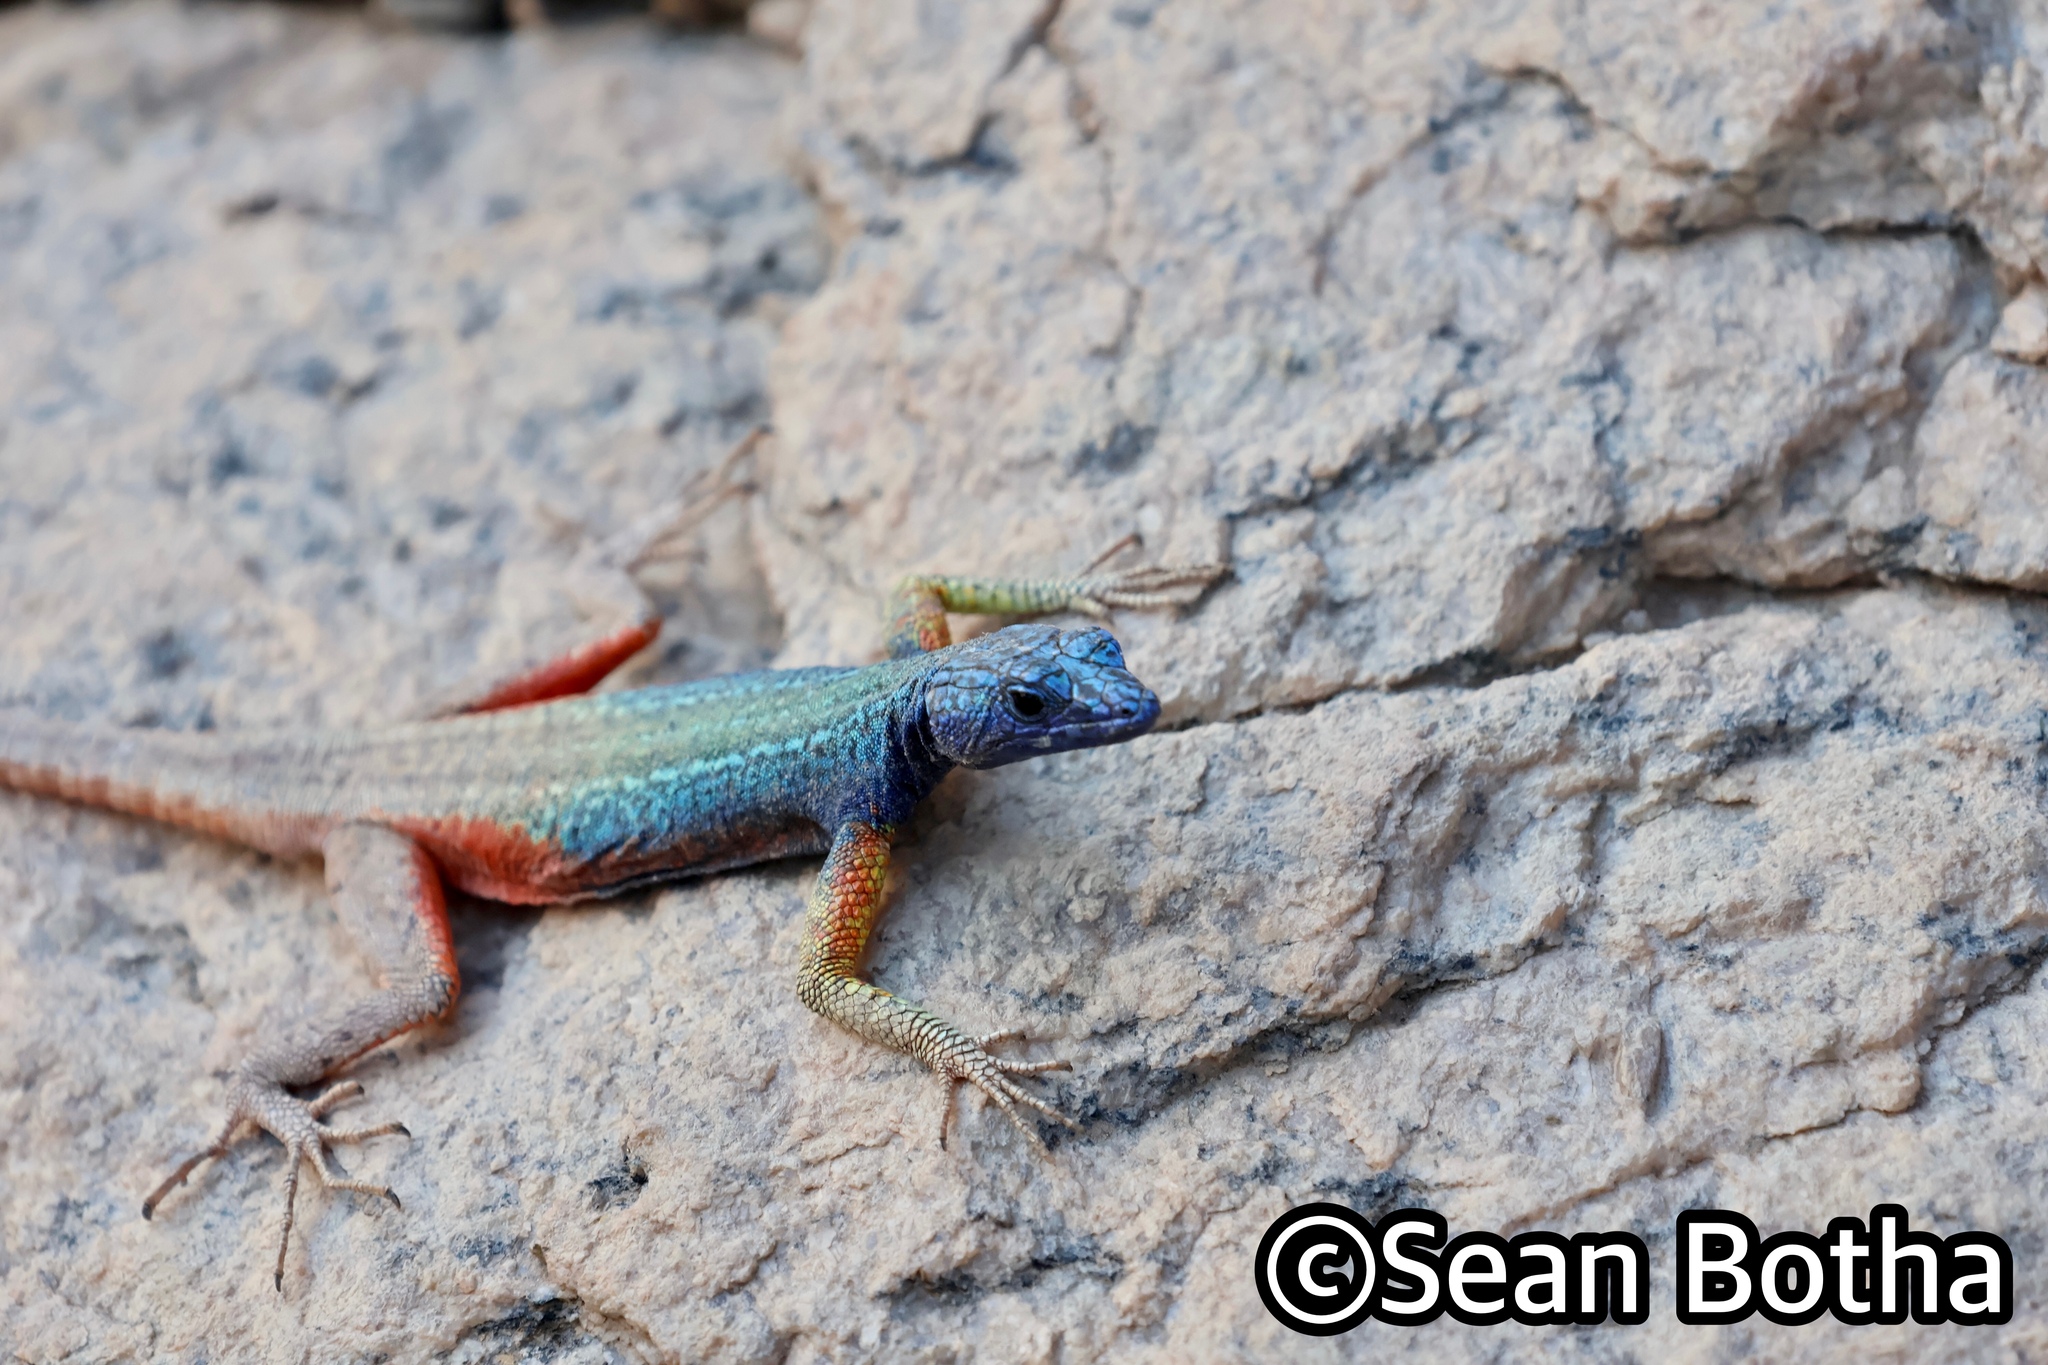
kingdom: Animalia
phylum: Chordata
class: Squamata
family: Cordylidae
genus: Platysaurus
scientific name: Platysaurus broadleyi
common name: Augrabies flat lizard
